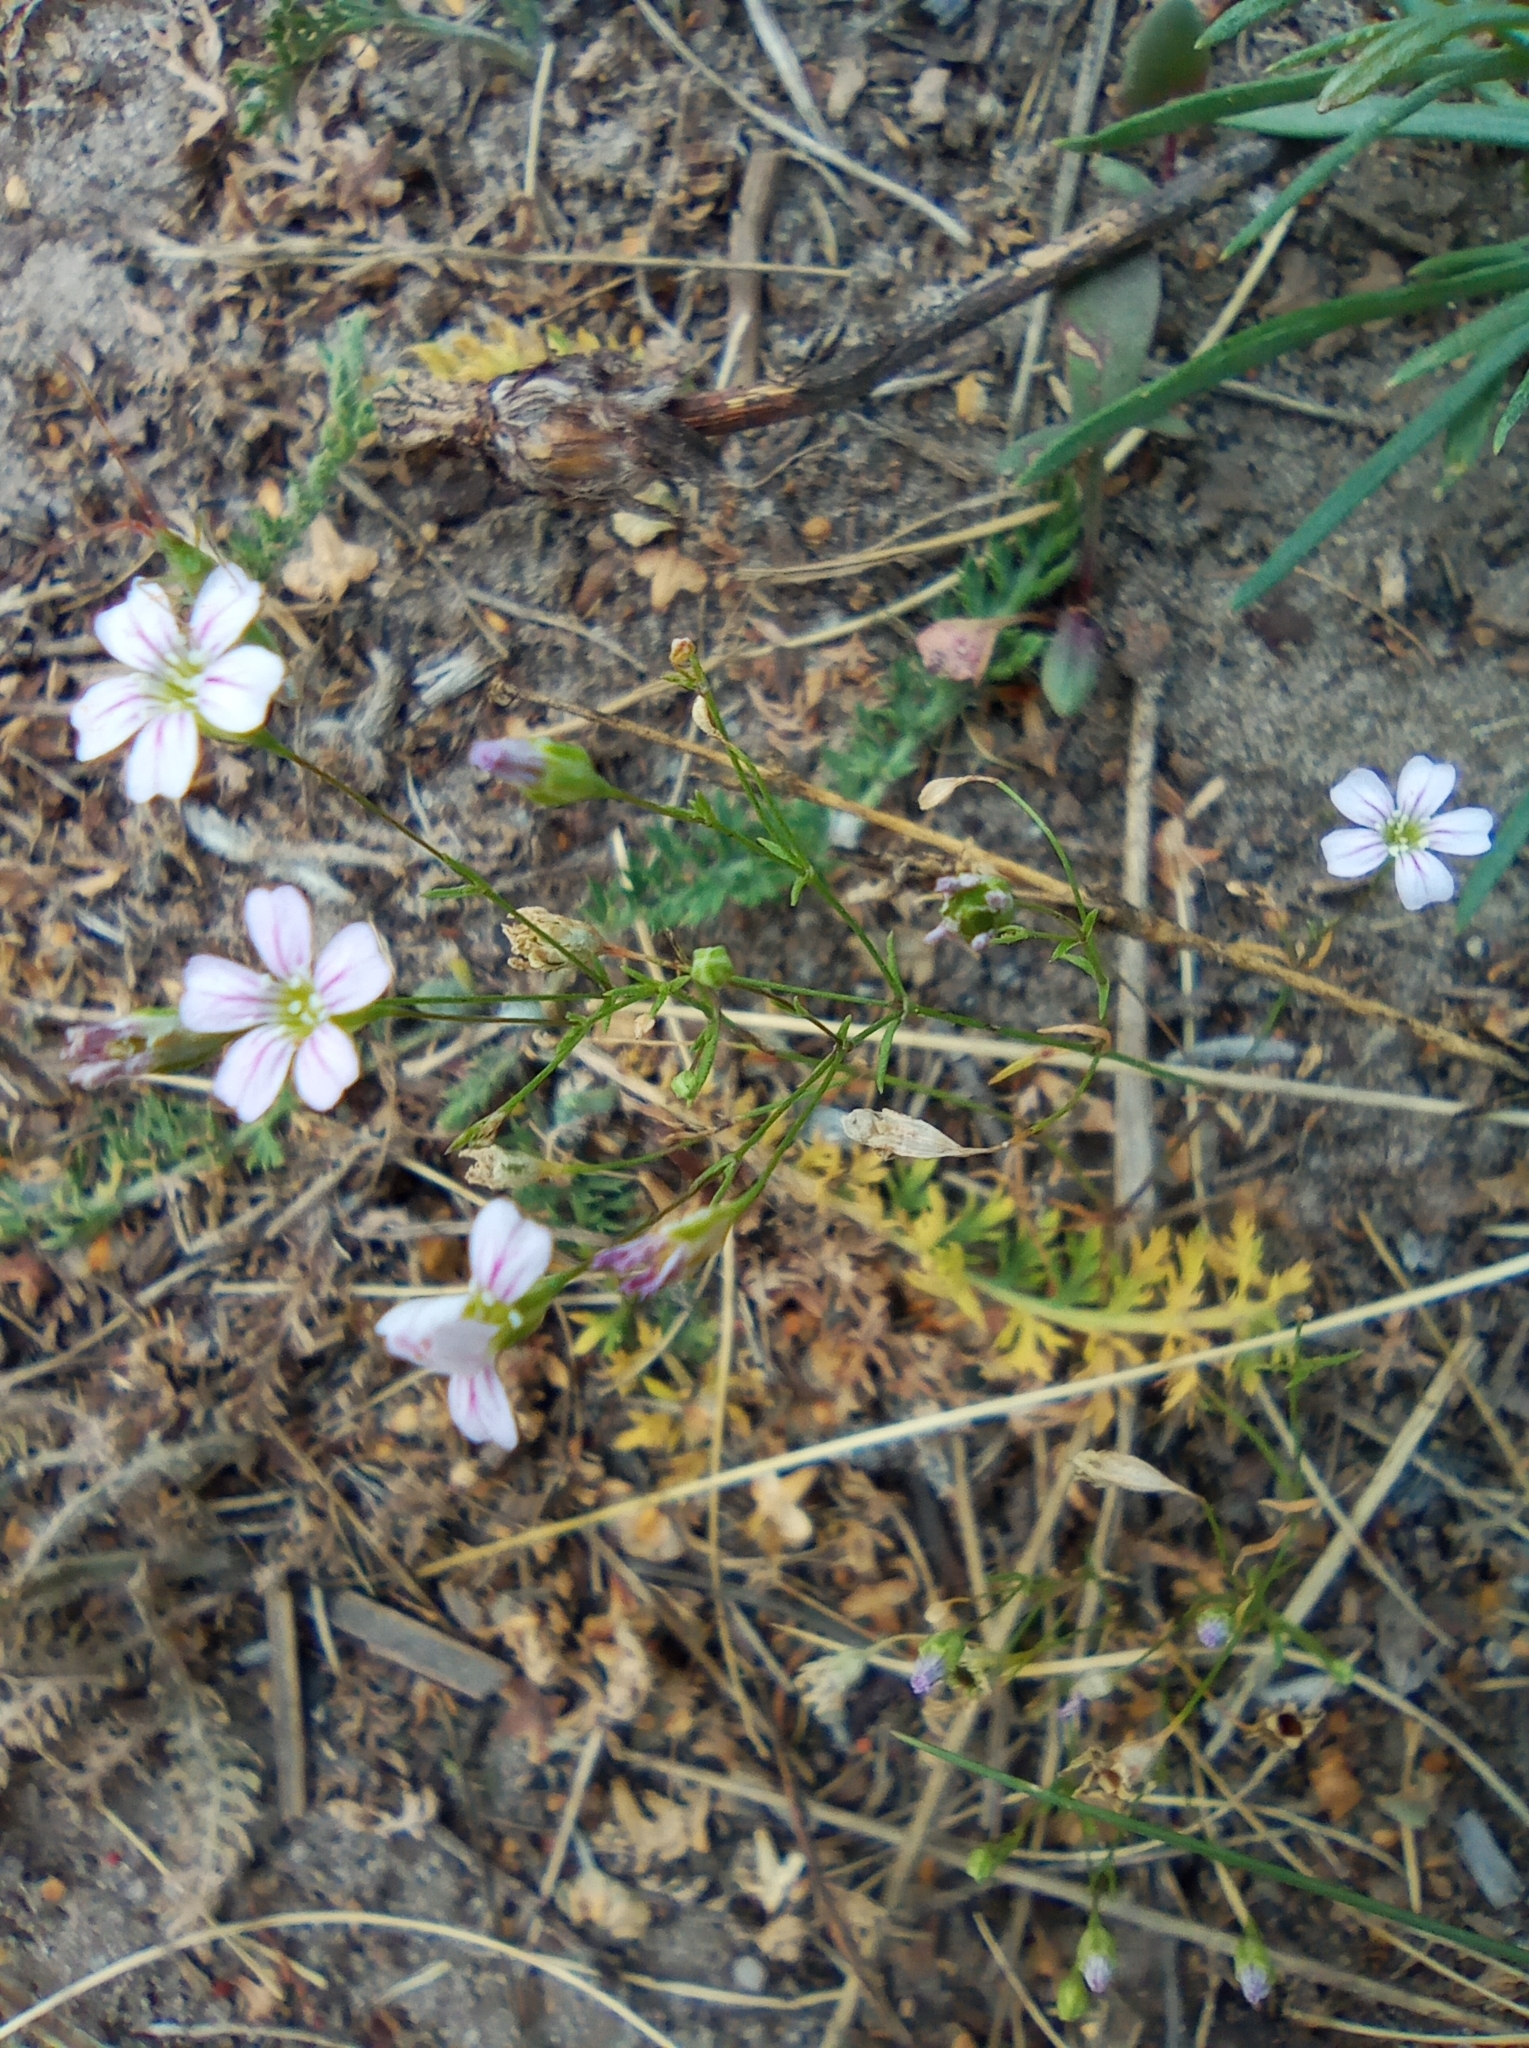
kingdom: Plantae
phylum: Tracheophyta
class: Magnoliopsida
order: Caryophyllales
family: Caryophyllaceae
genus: Psammophiliella
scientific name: Psammophiliella muralis
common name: Cushion baby's-breath
